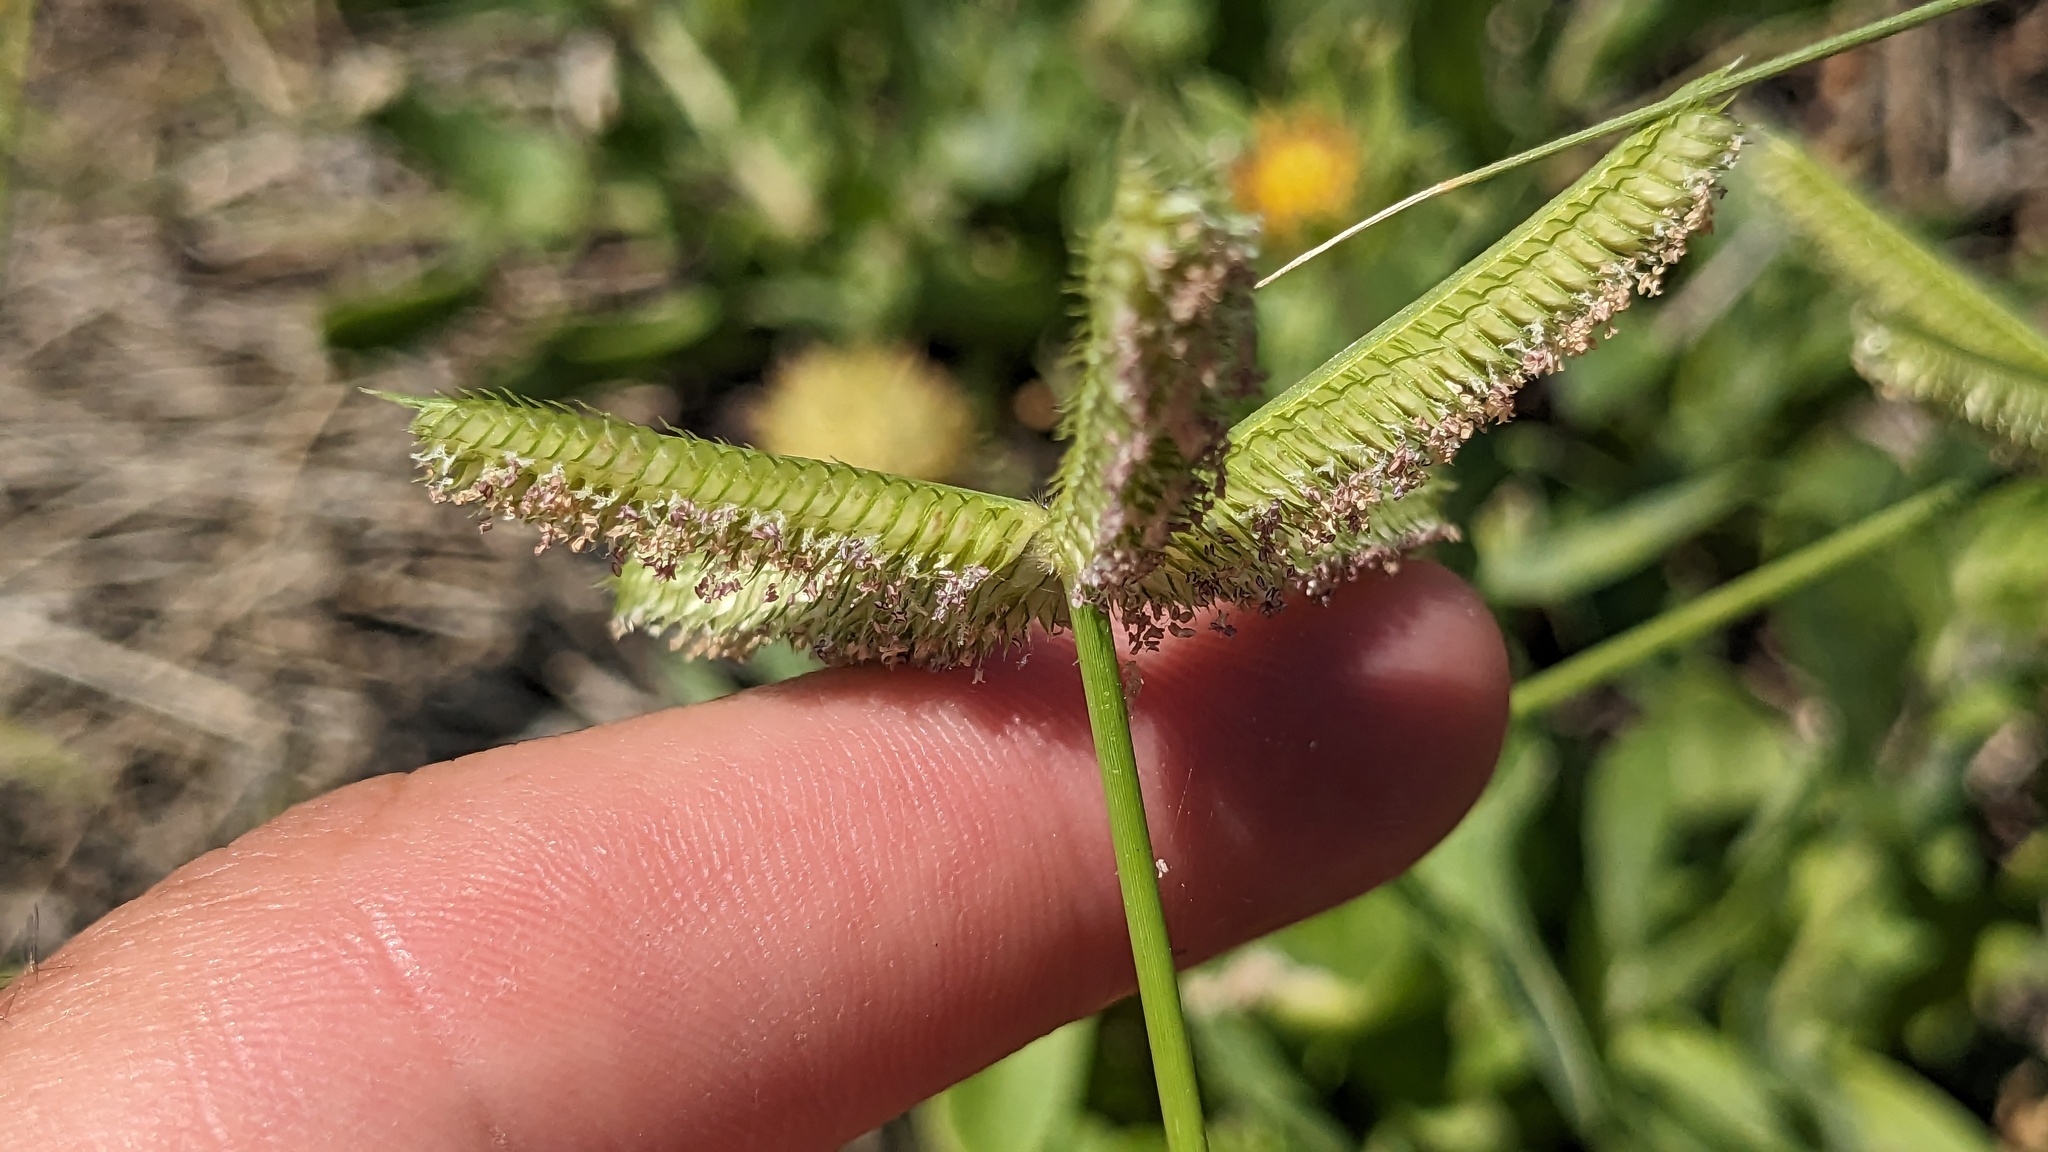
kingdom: Plantae
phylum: Tracheophyta
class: Liliopsida
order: Poales
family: Poaceae
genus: Dactyloctenium
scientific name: Dactyloctenium aegyptium
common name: Egyptian grass
